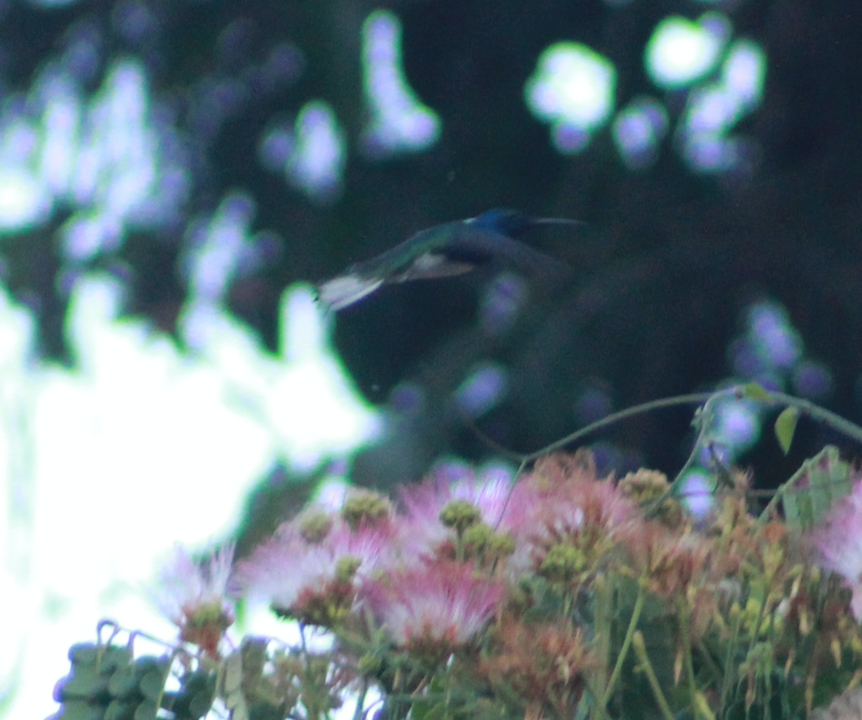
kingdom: Animalia
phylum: Chordata
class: Aves
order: Apodiformes
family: Trochilidae
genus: Florisuga
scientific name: Florisuga mellivora
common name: White-necked jacobin
